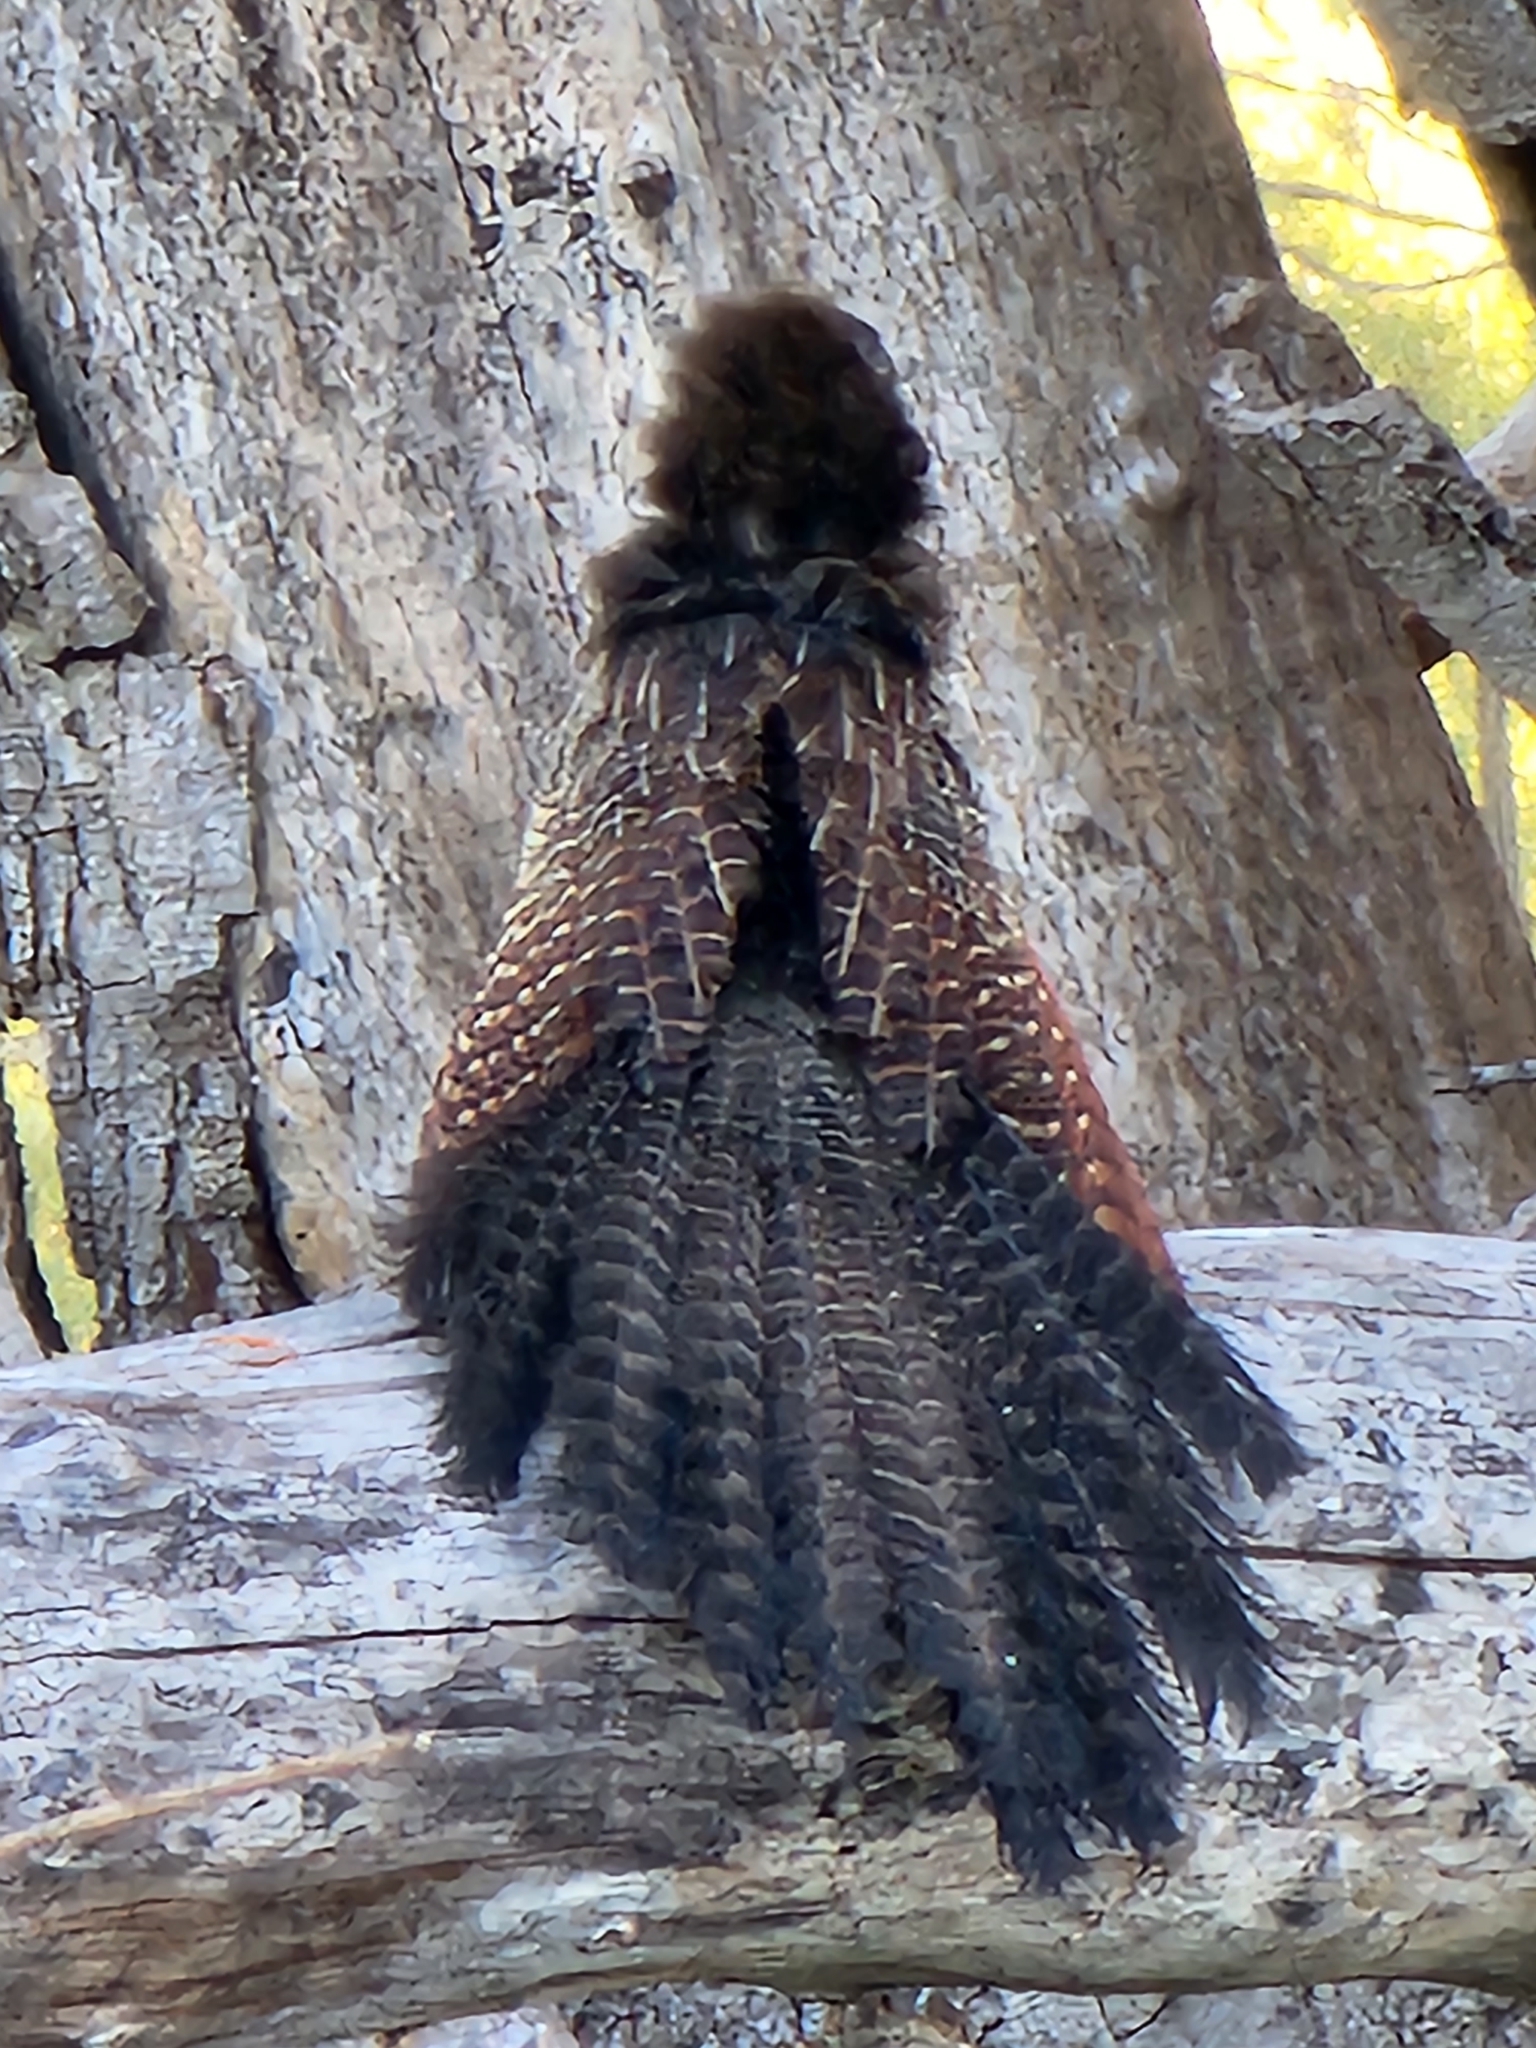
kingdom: Animalia
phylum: Chordata
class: Aves
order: Cuculiformes
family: Cuculidae
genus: Centropus
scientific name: Centropus phasianinus
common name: Pheasant coucal
